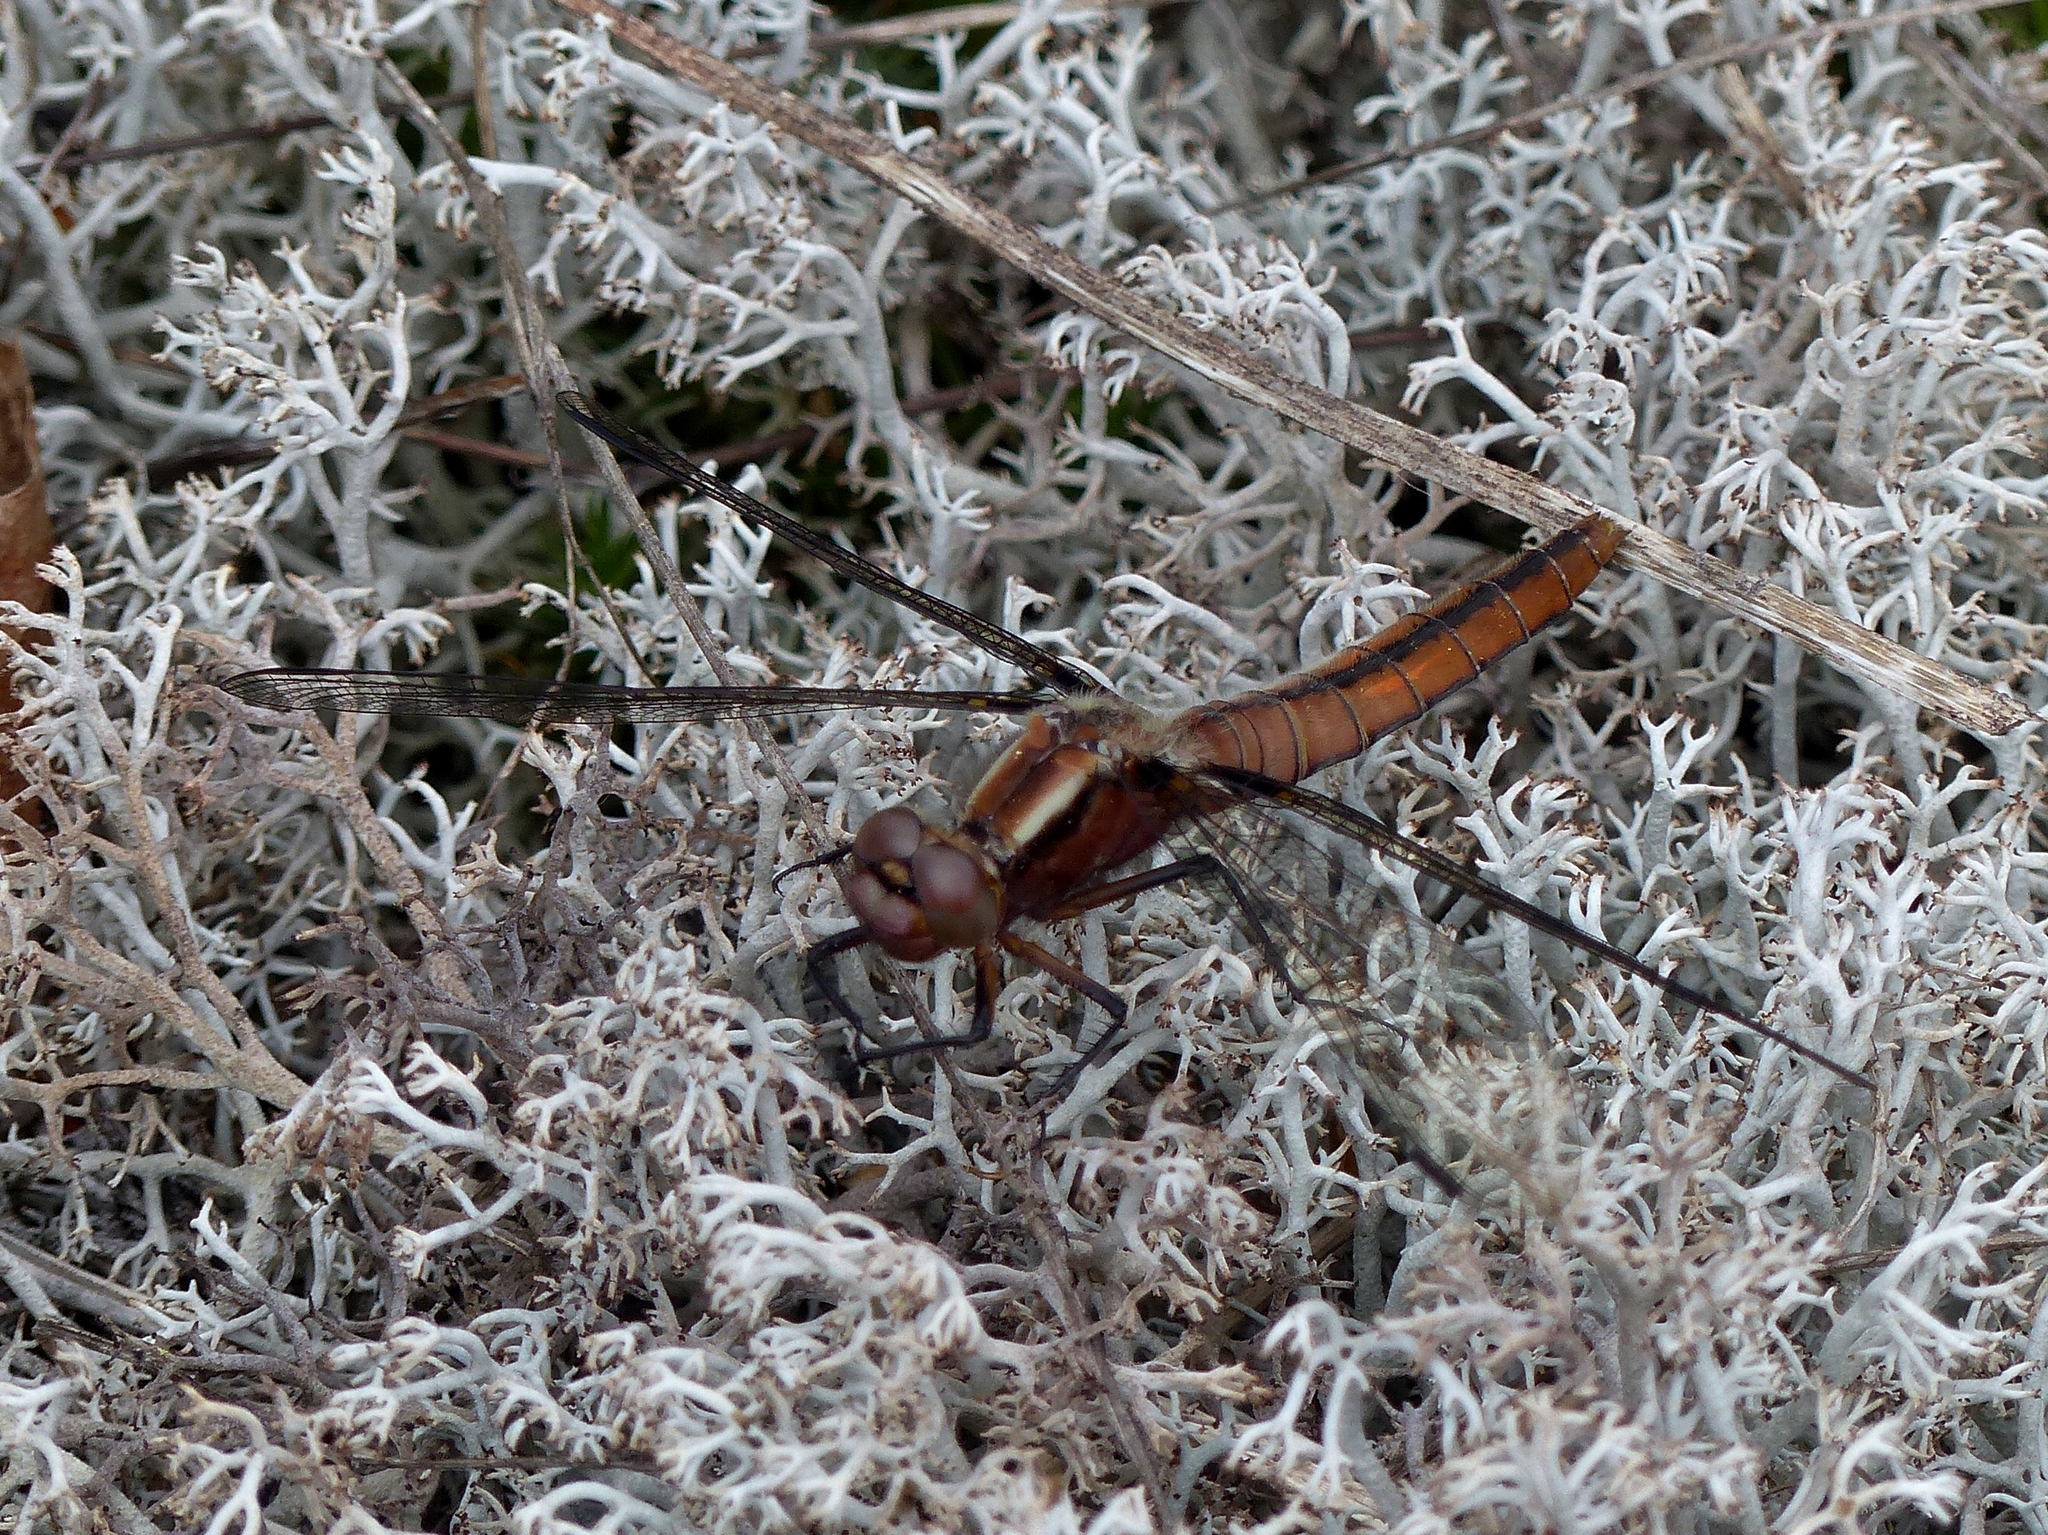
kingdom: Animalia
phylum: Arthropoda
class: Insecta
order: Odonata
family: Libellulidae
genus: Ladona
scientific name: Ladona julia
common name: Chalk-fronted corporal
